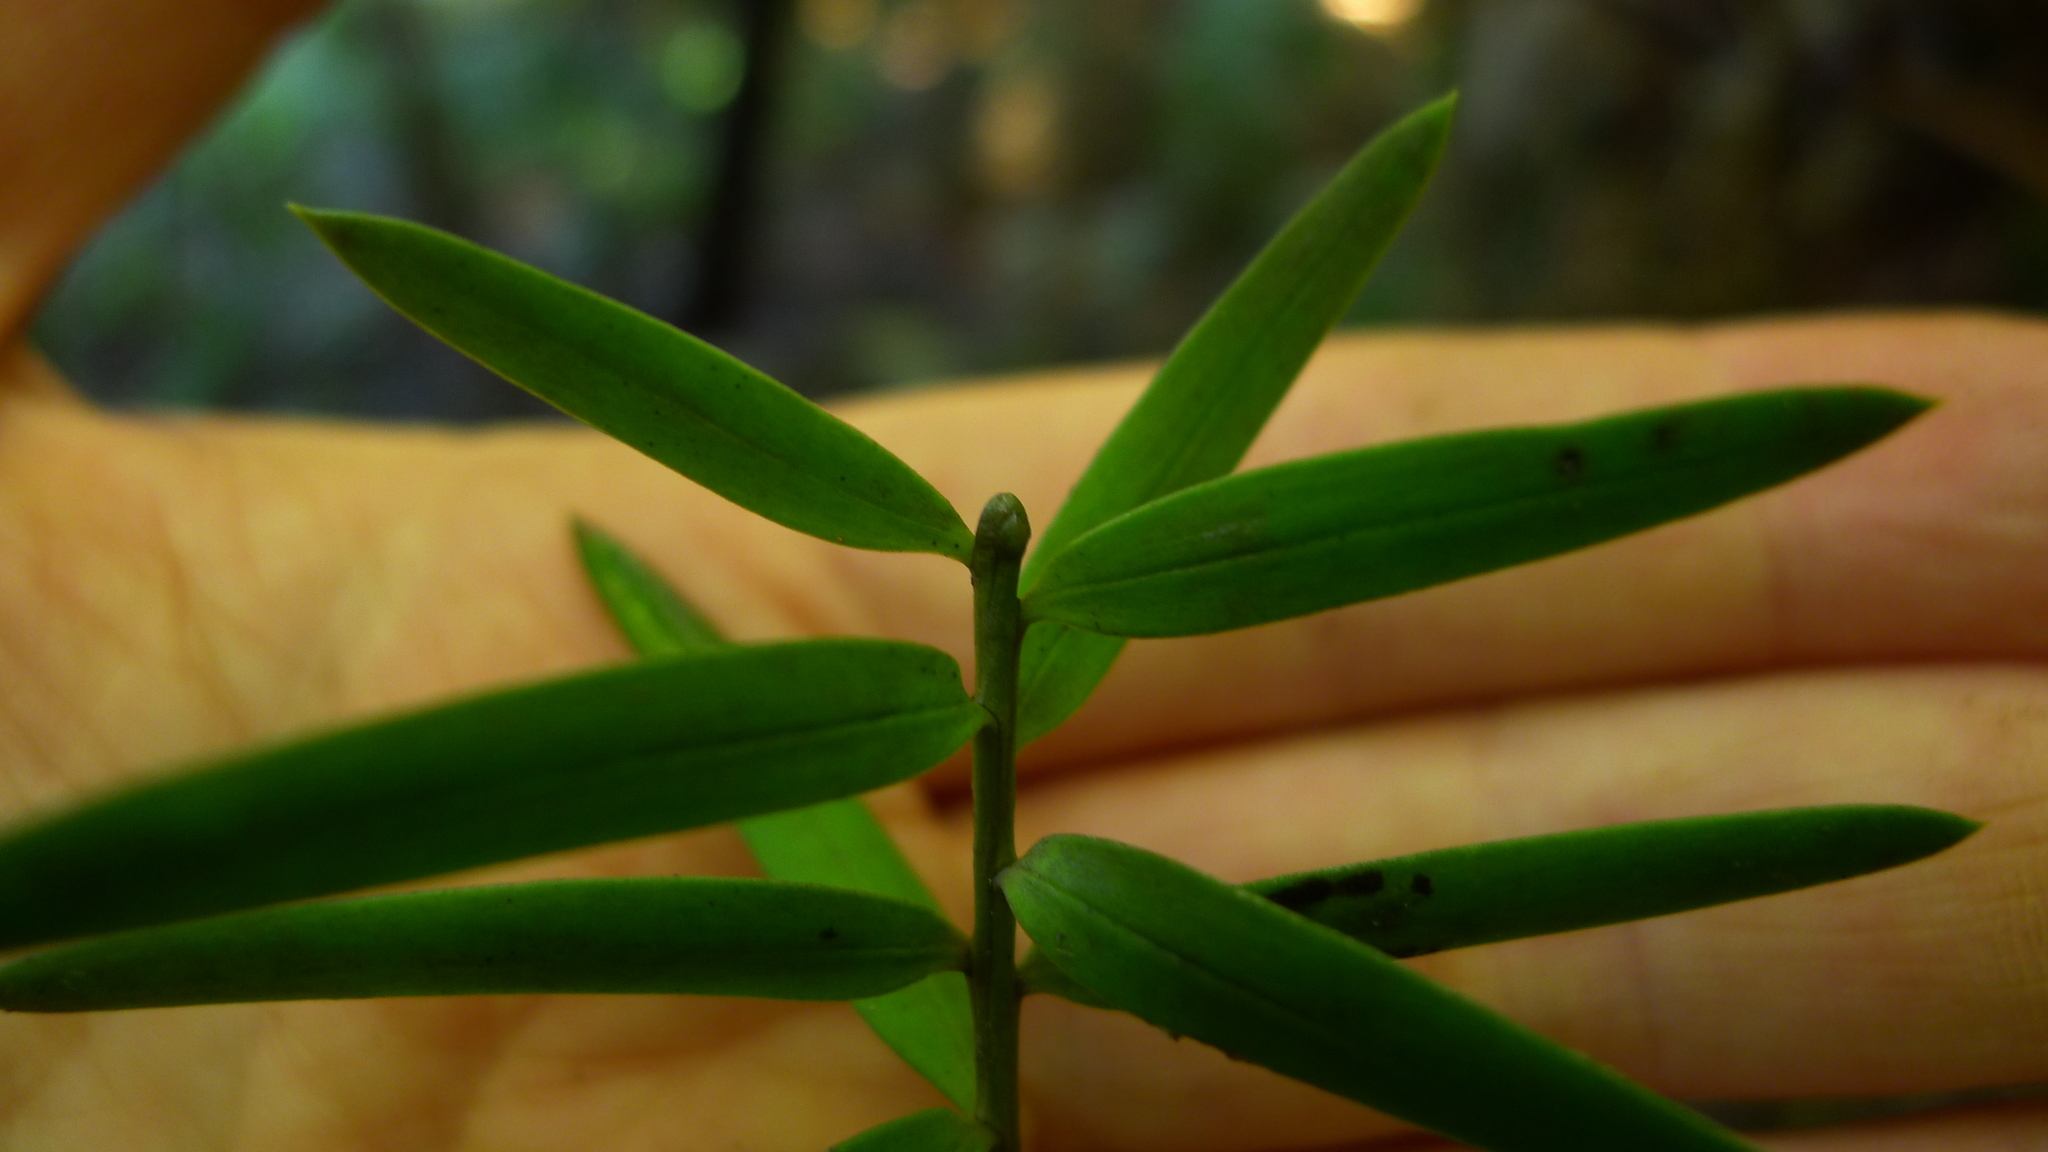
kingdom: Plantae
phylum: Tracheophyta
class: Pinopsida
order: Pinales
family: Podocarpaceae
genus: Podocarpus
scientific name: Podocarpus laetus
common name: Hall's totara
